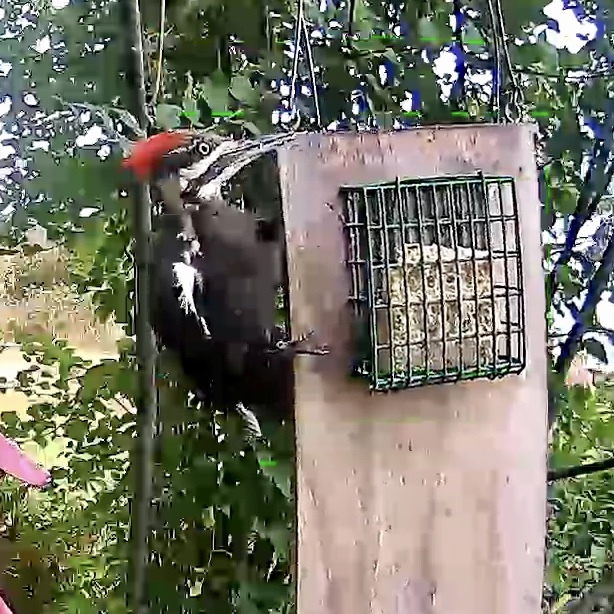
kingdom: Animalia
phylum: Chordata
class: Aves
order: Piciformes
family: Picidae
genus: Dryocopus
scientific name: Dryocopus pileatus
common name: Pileated woodpecker
